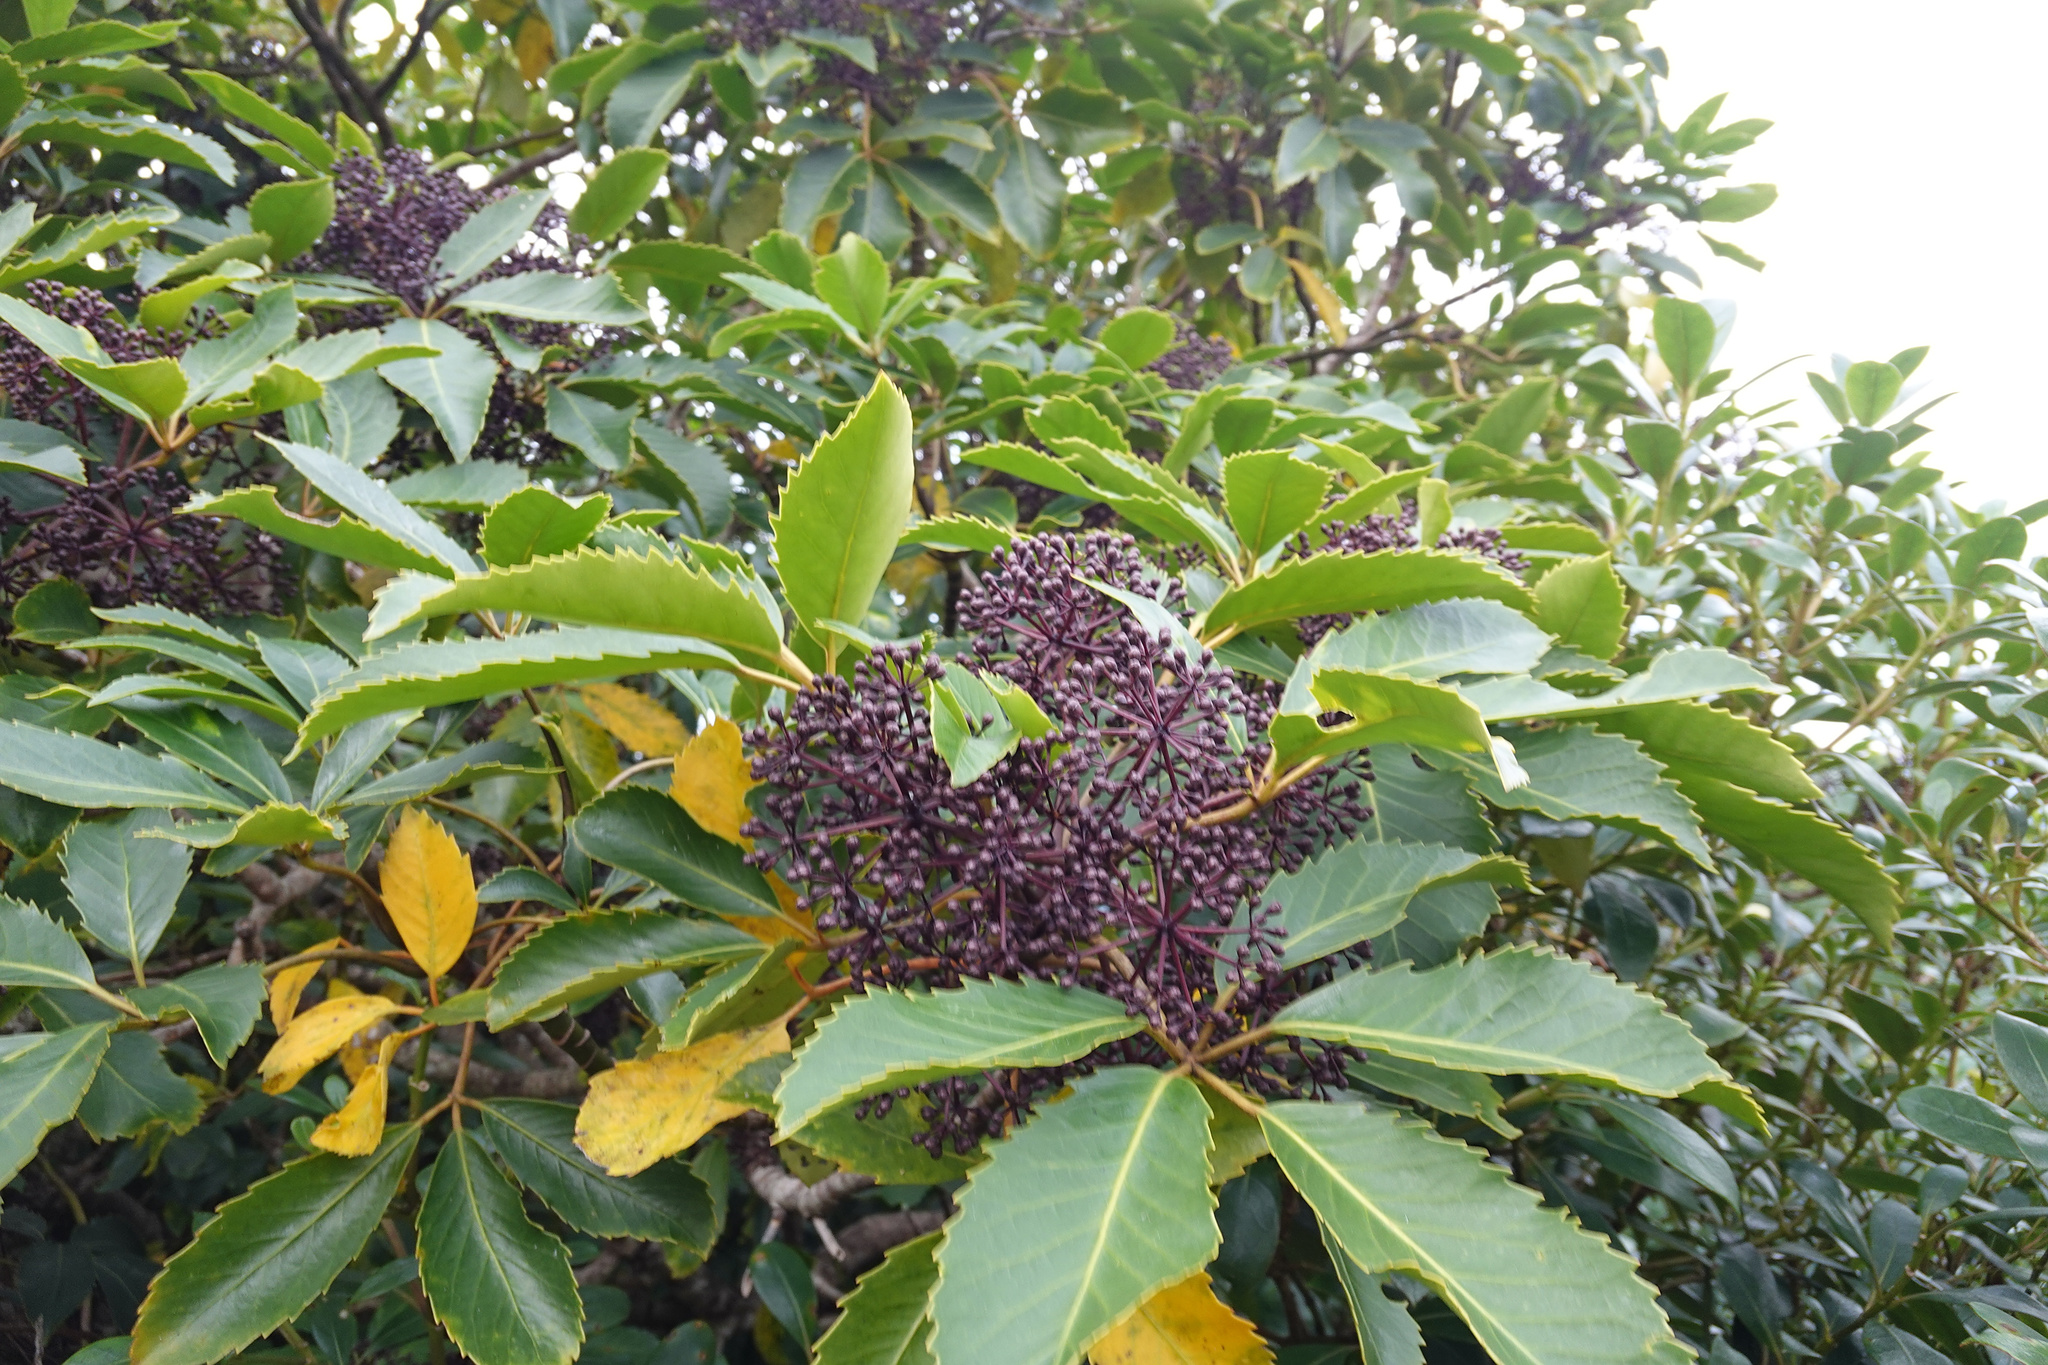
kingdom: Plantae
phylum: Tracheophyta
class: Magnoliopsida
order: Apiales
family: Araliaceae
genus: Neopanax
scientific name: Neopanax arboreus
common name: Five-fingers
